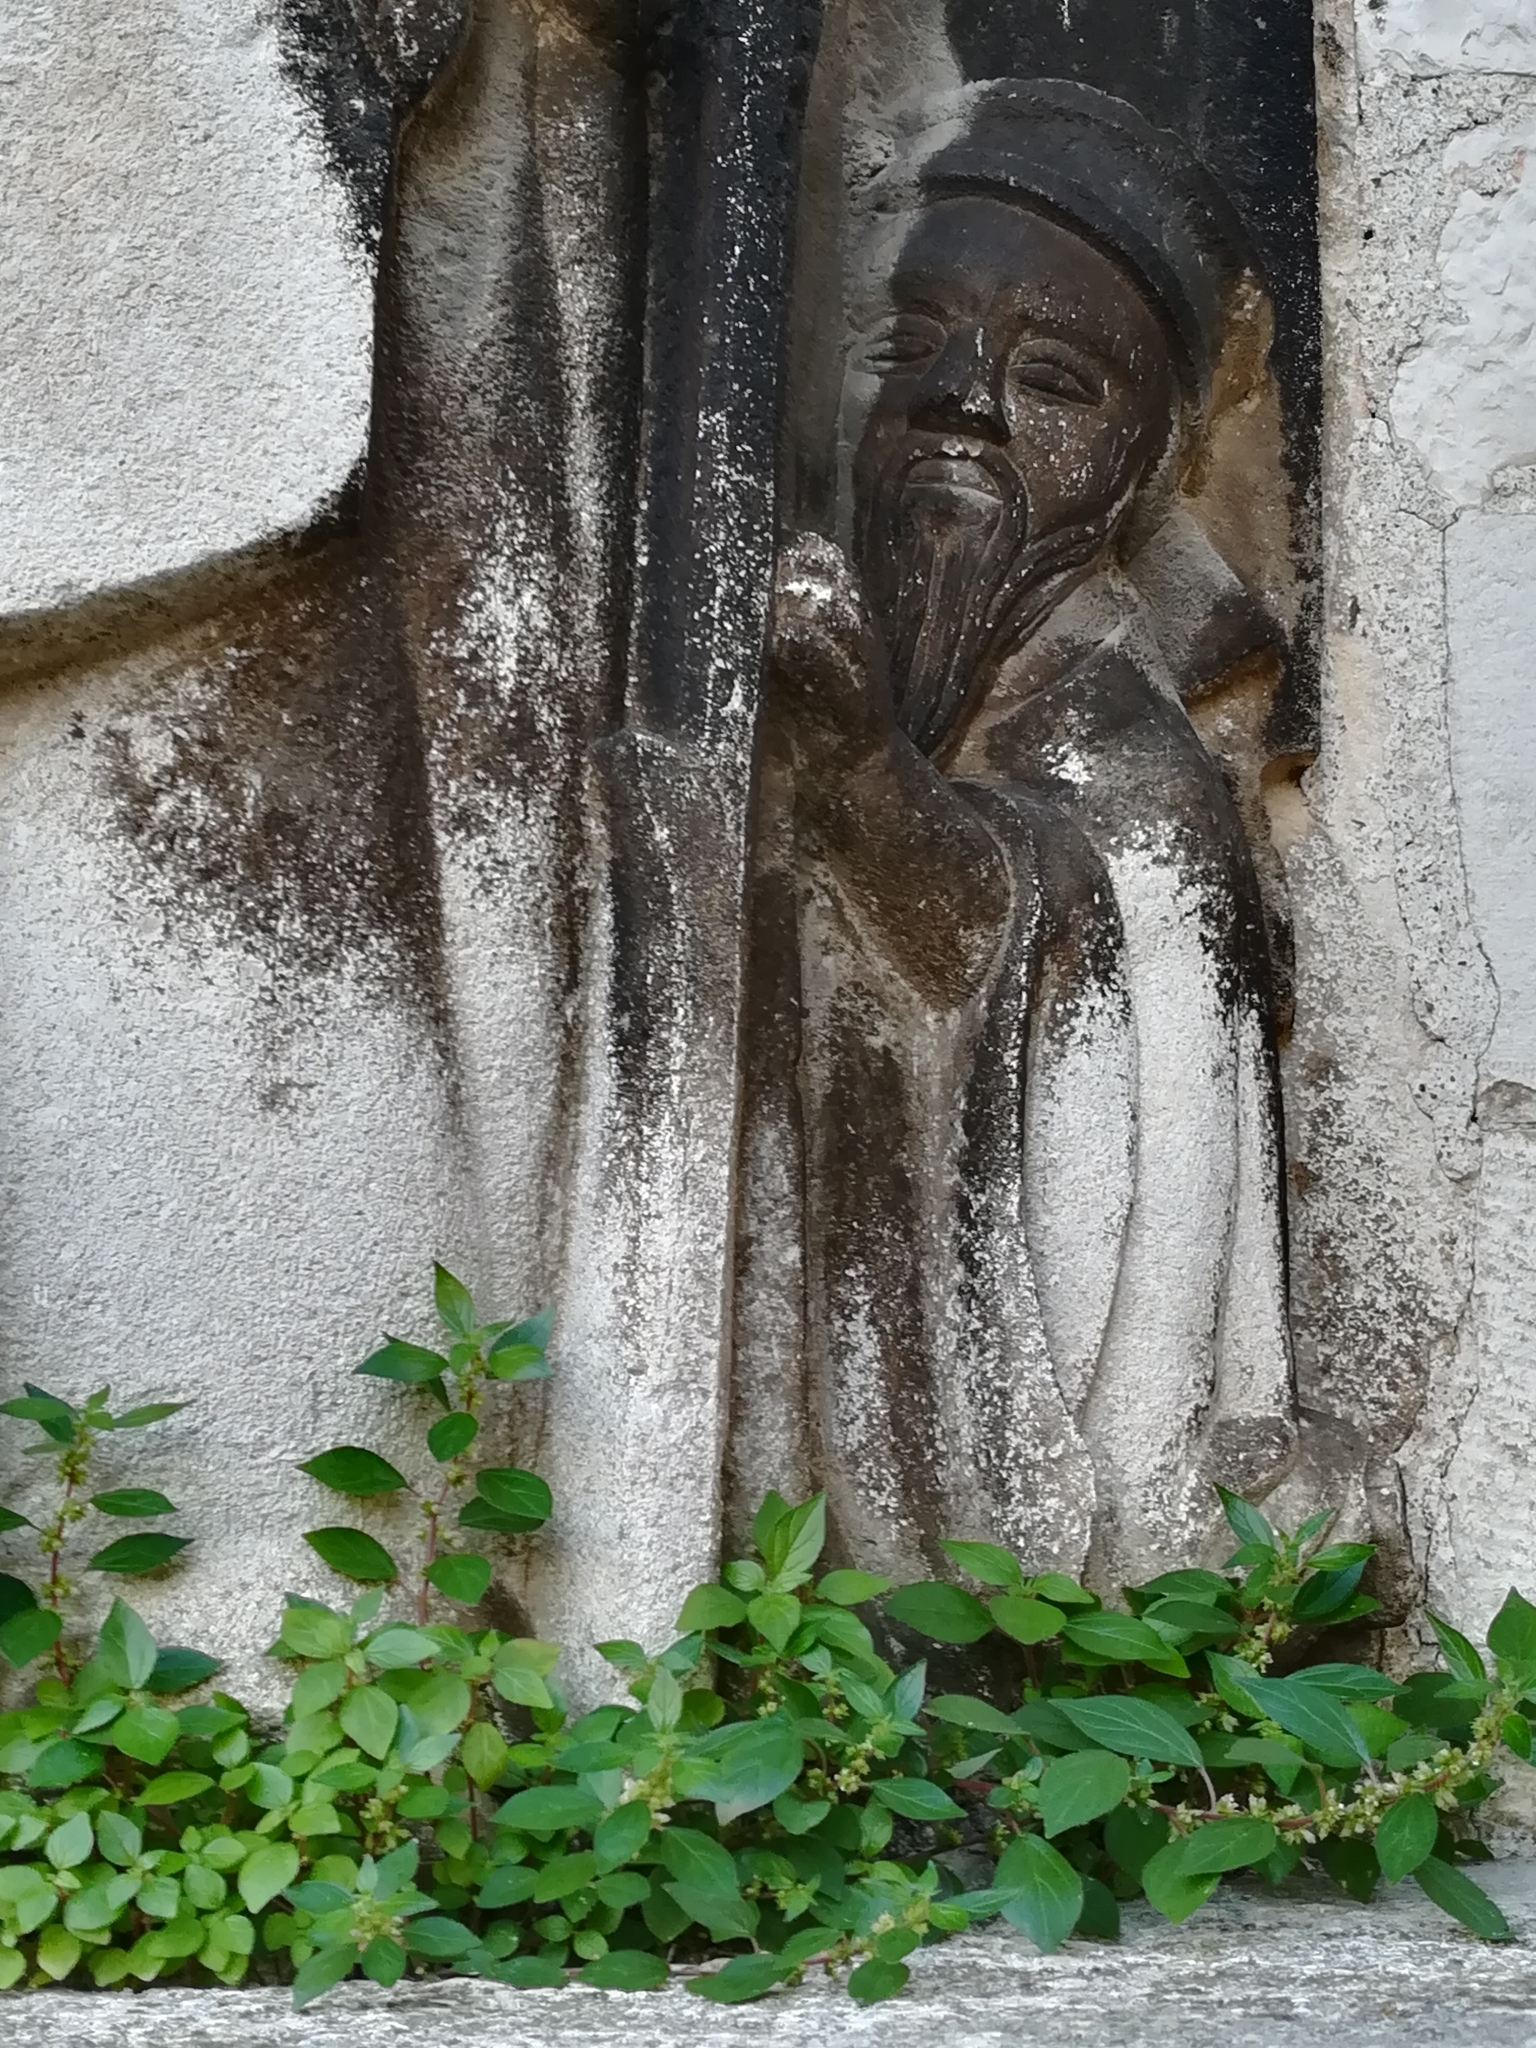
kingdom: Plantae
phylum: Tracheophyta
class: Magnoliopsida
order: Rosales
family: Urticaceae
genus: Parietaria
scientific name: Parietaria judaica
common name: Pellitory-of-the-wall
